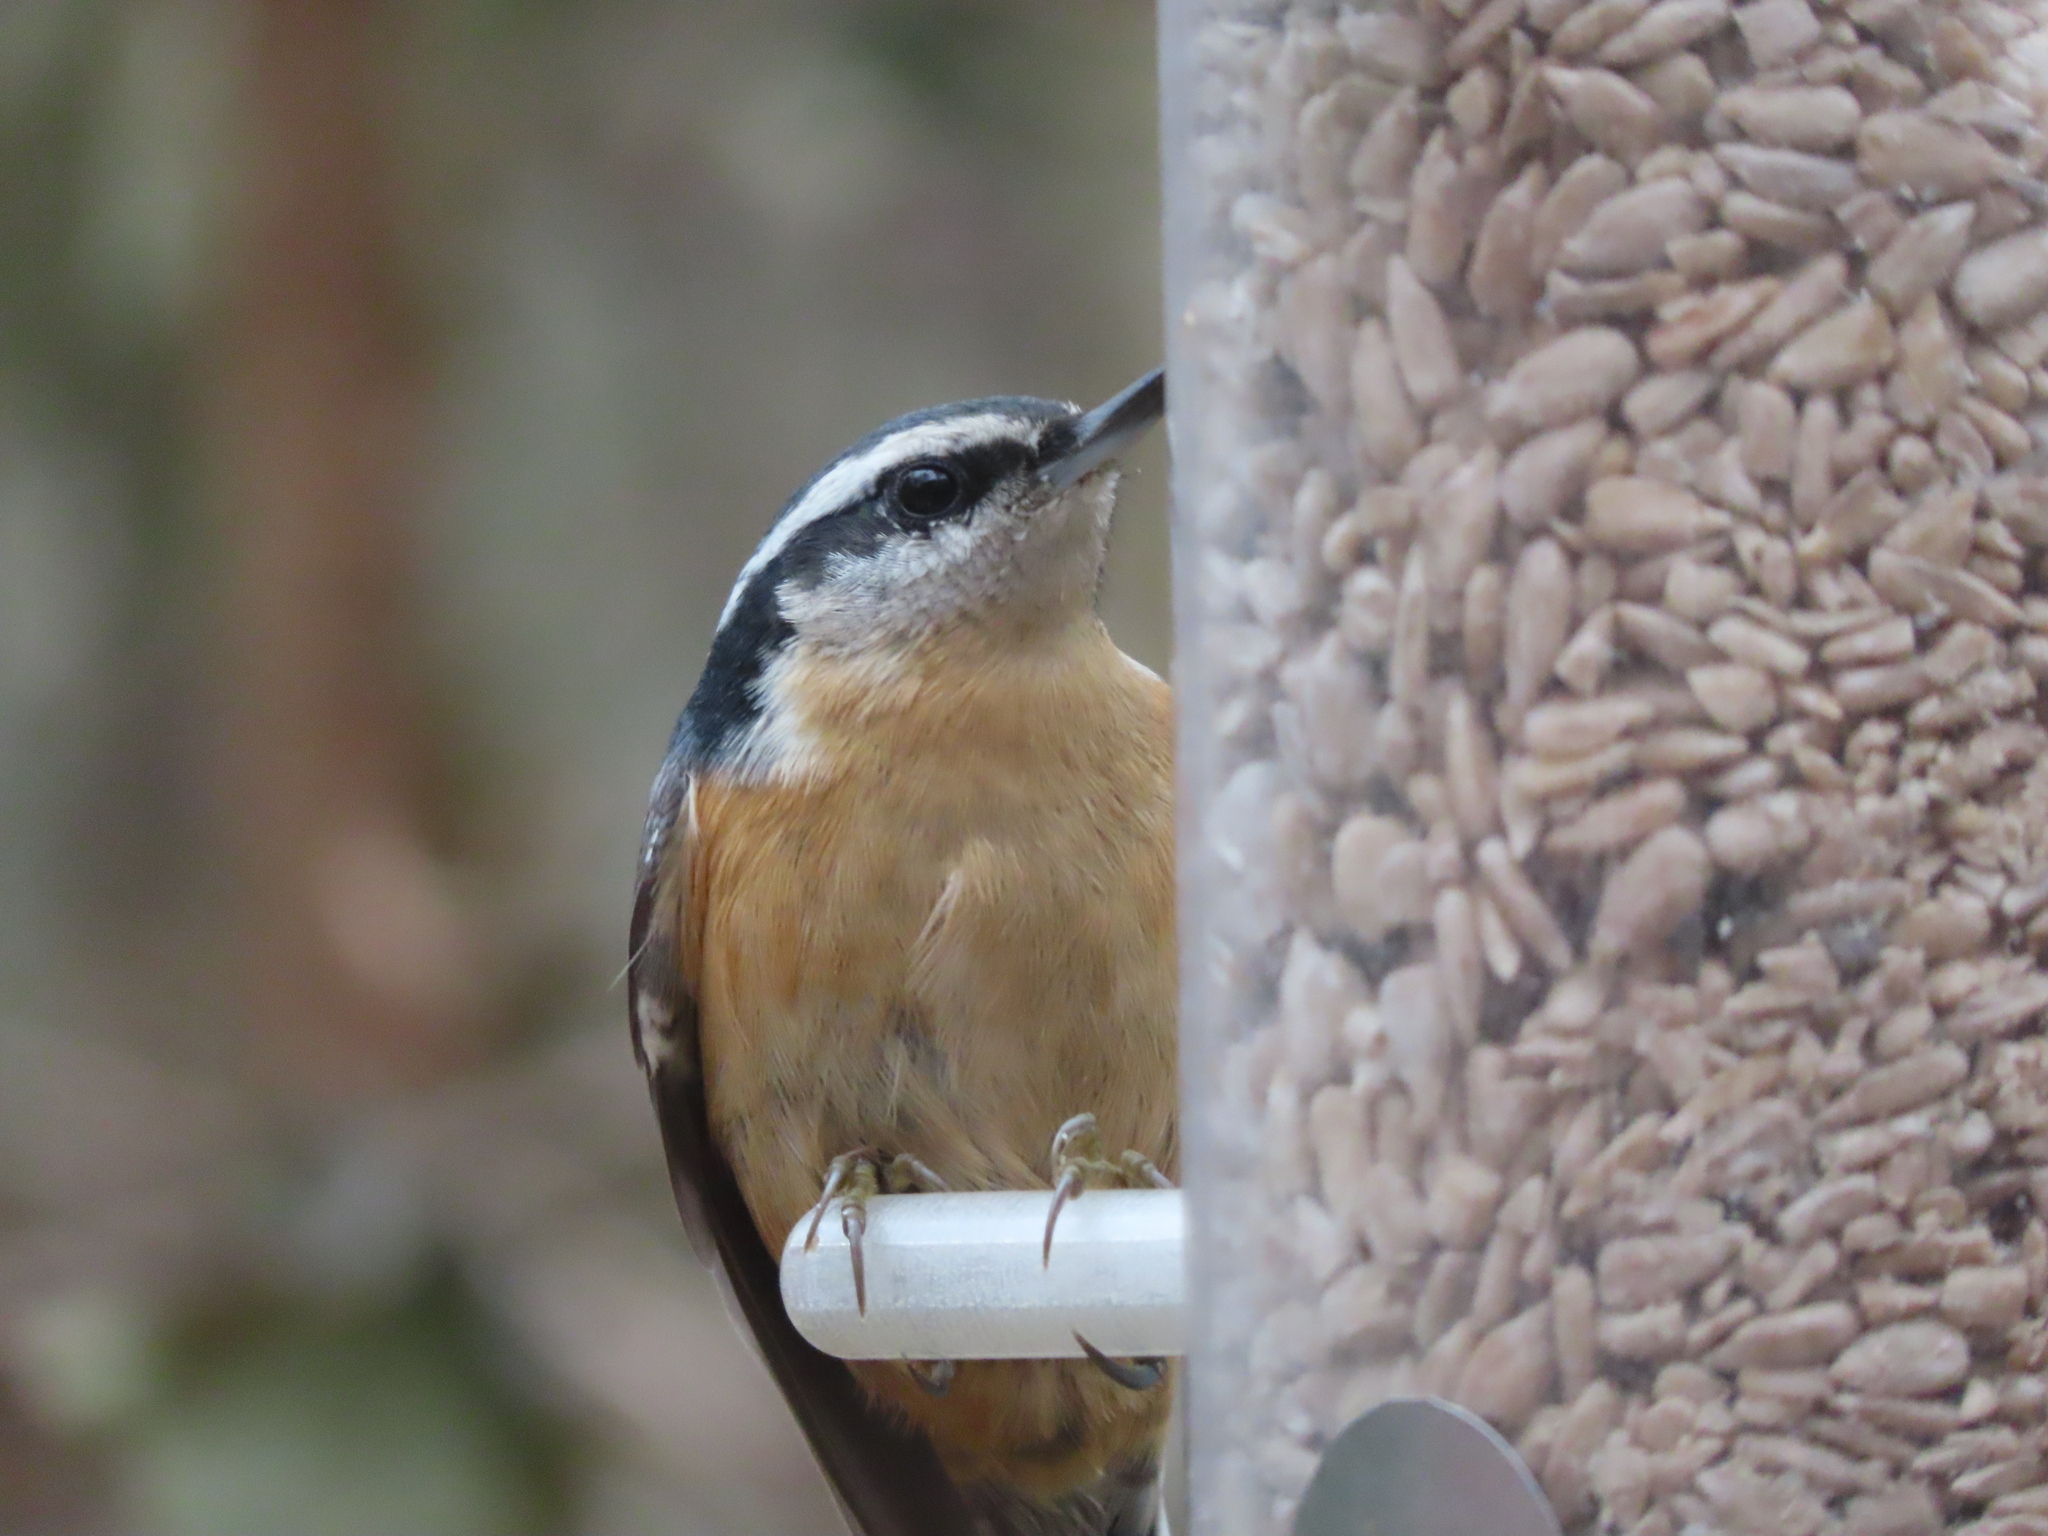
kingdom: Animalia
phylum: Chordata
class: Aves
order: Passeriformes
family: Sittidae
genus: Sitta
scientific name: Sitta canadensis
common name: Red-breasted nuthatch
